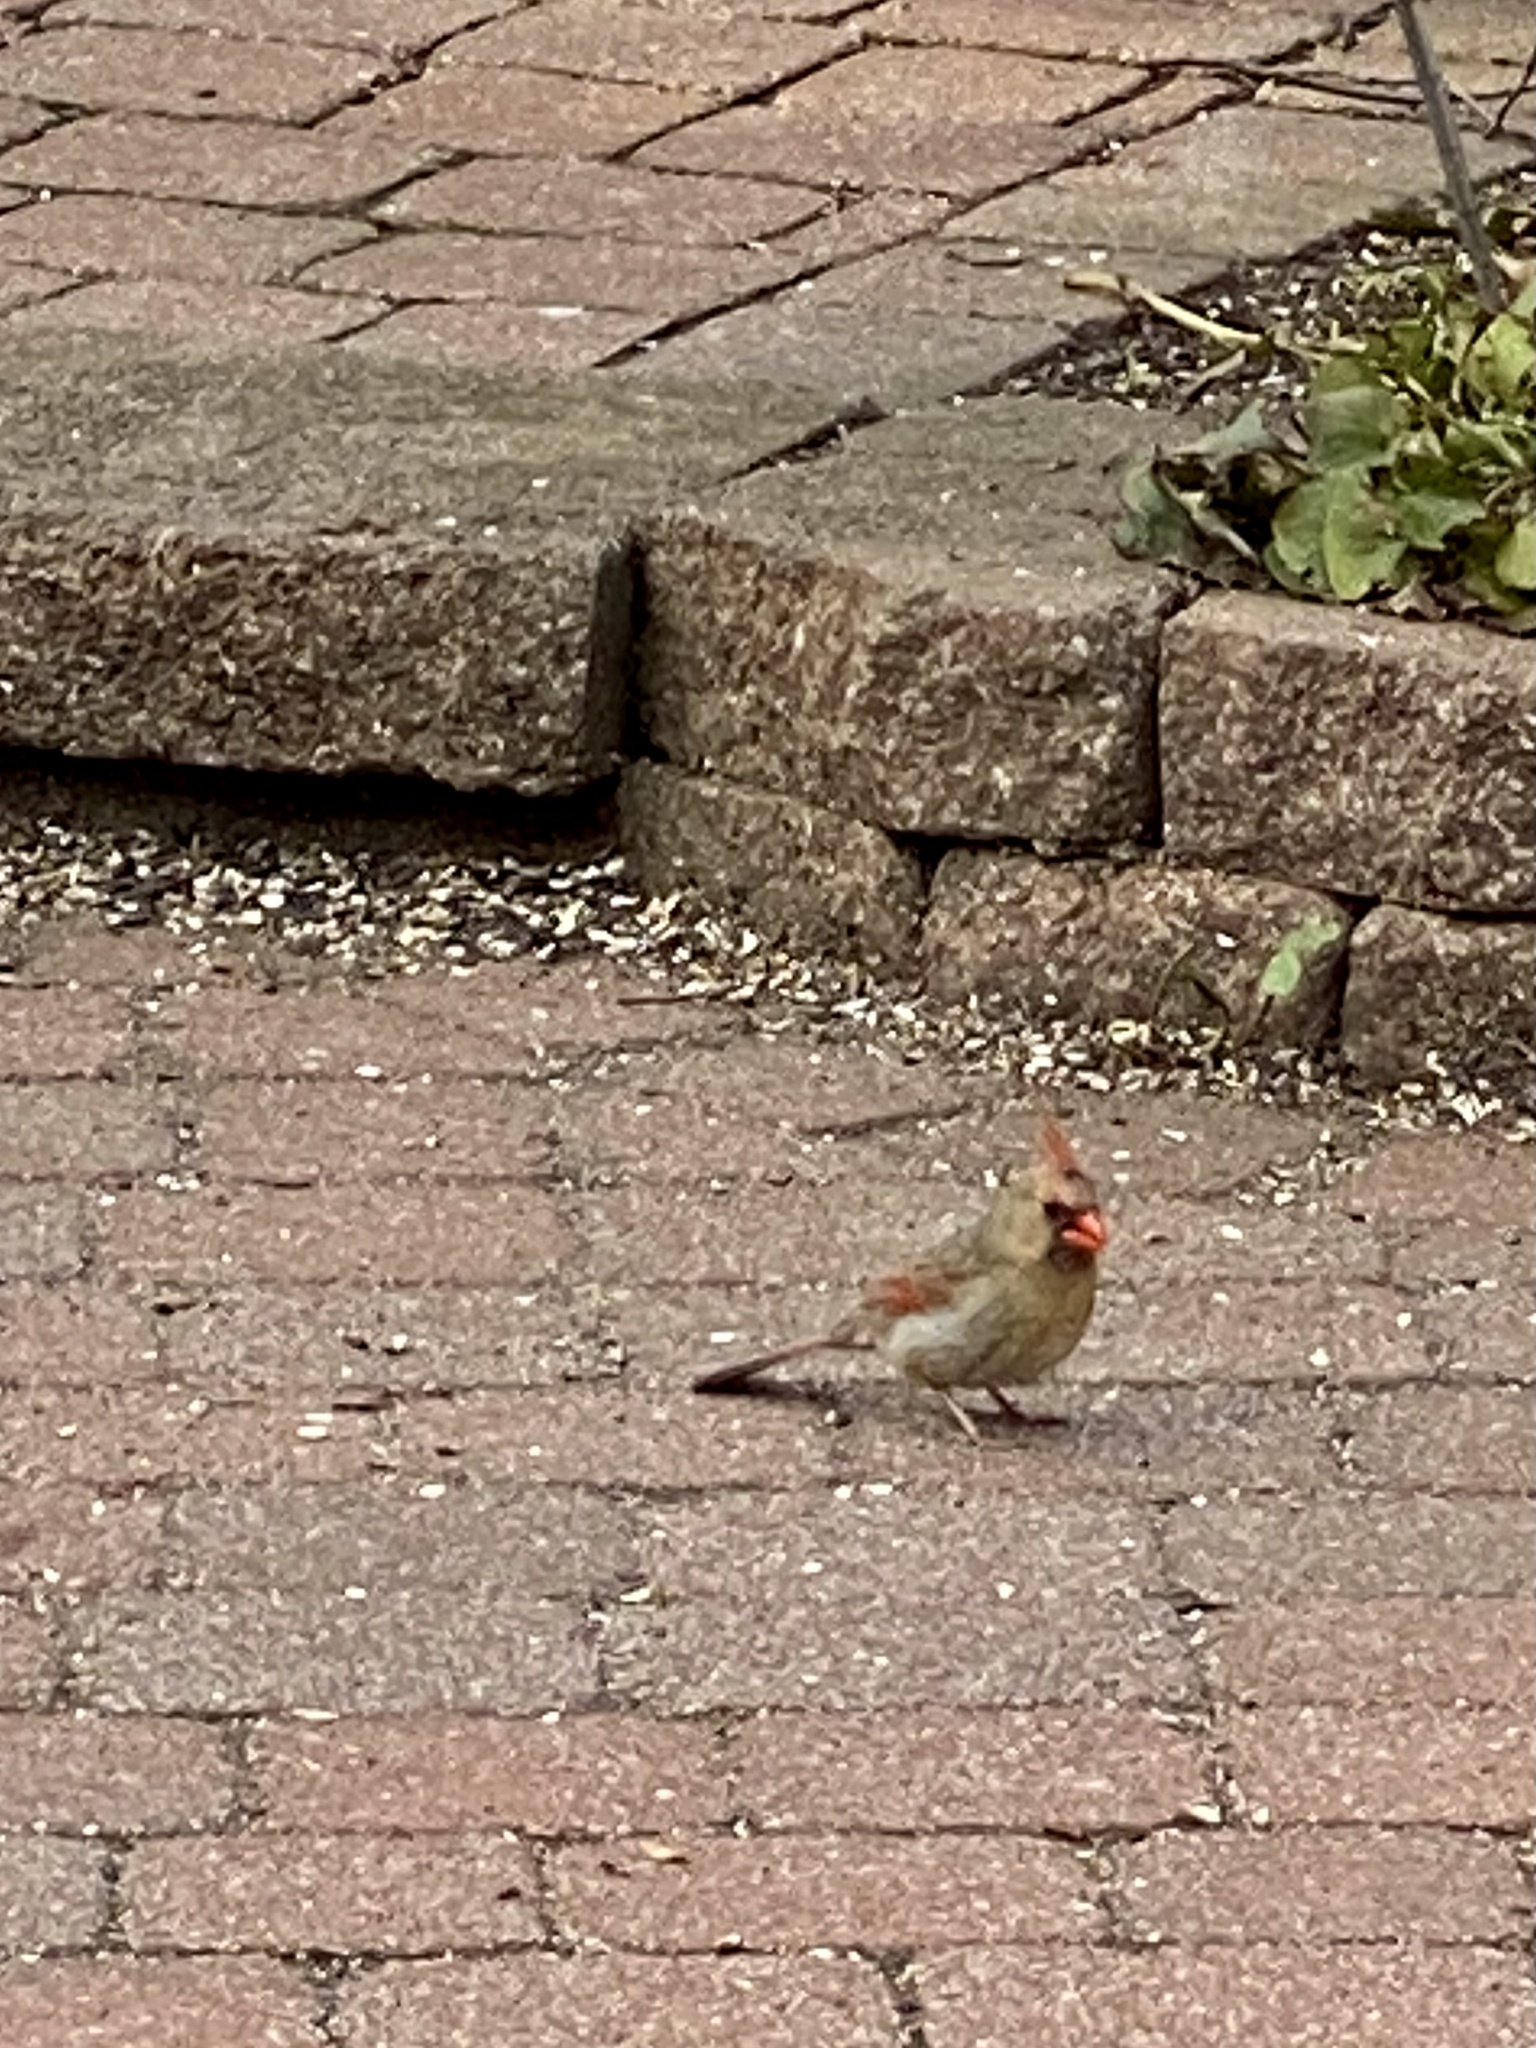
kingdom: Animalia
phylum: Chordata
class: Aves
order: Passeriformes
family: Cardinalidae
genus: Cardinalis
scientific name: Cardinalis cardinalis
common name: Northern cardinal
